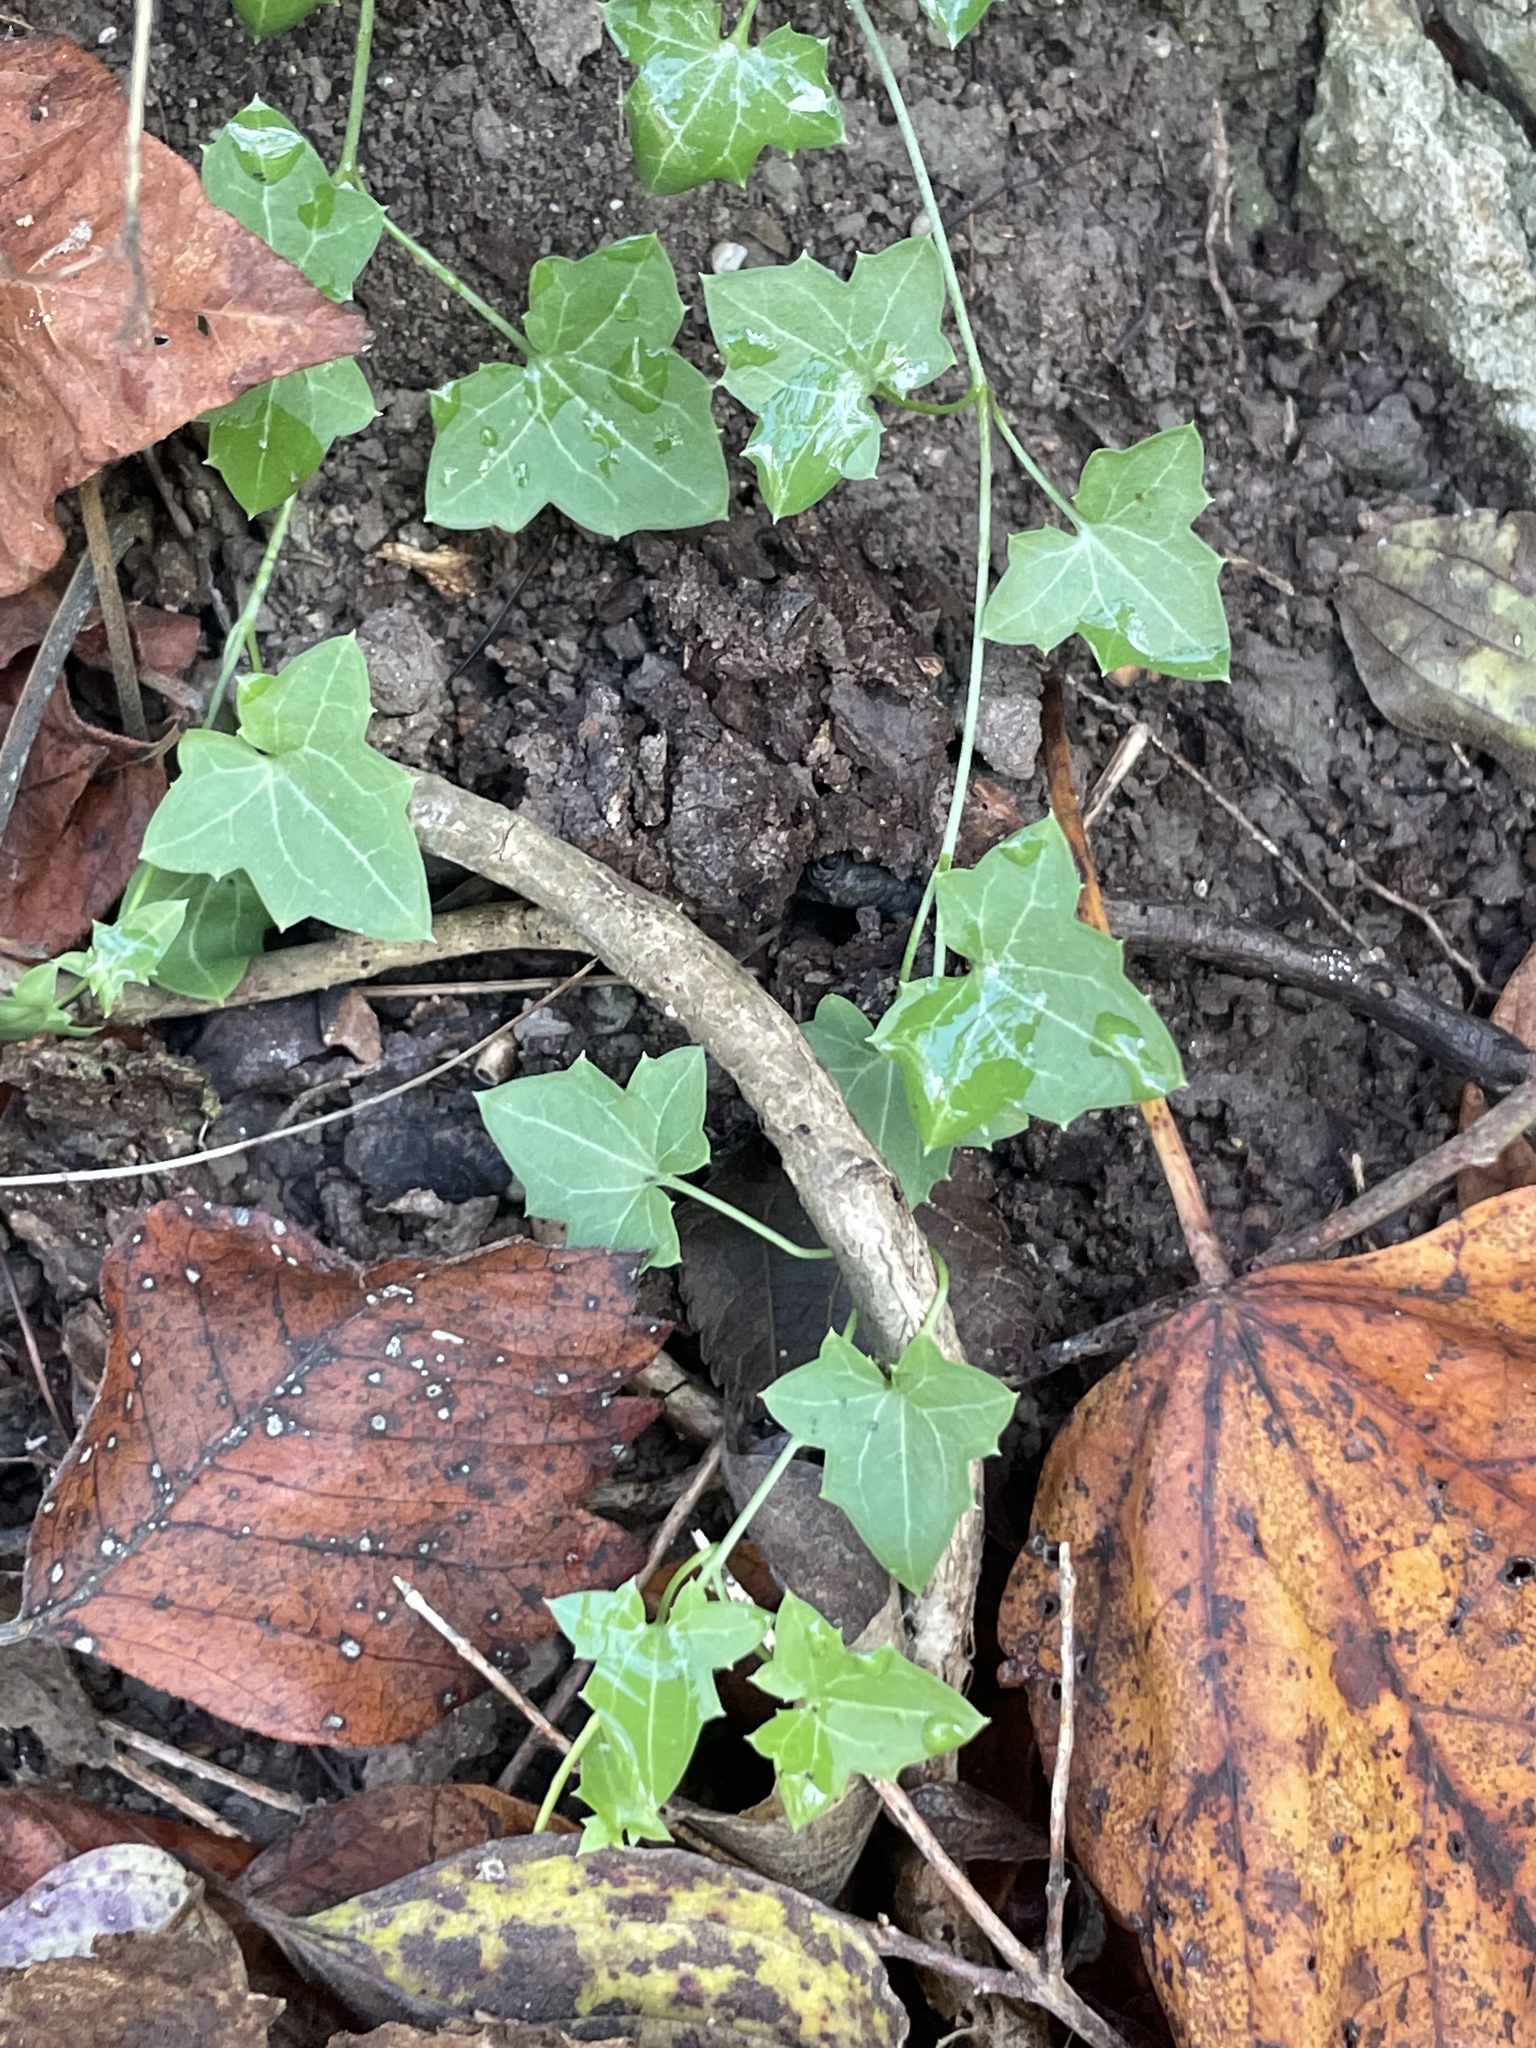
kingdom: Plantae
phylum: Tracheophyta
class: Magnoliopsida
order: Lamiales
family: Plantaginaceae
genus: Maurandella
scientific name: Maurandella antirrhiniflora
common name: Violet twining-snapdragon
